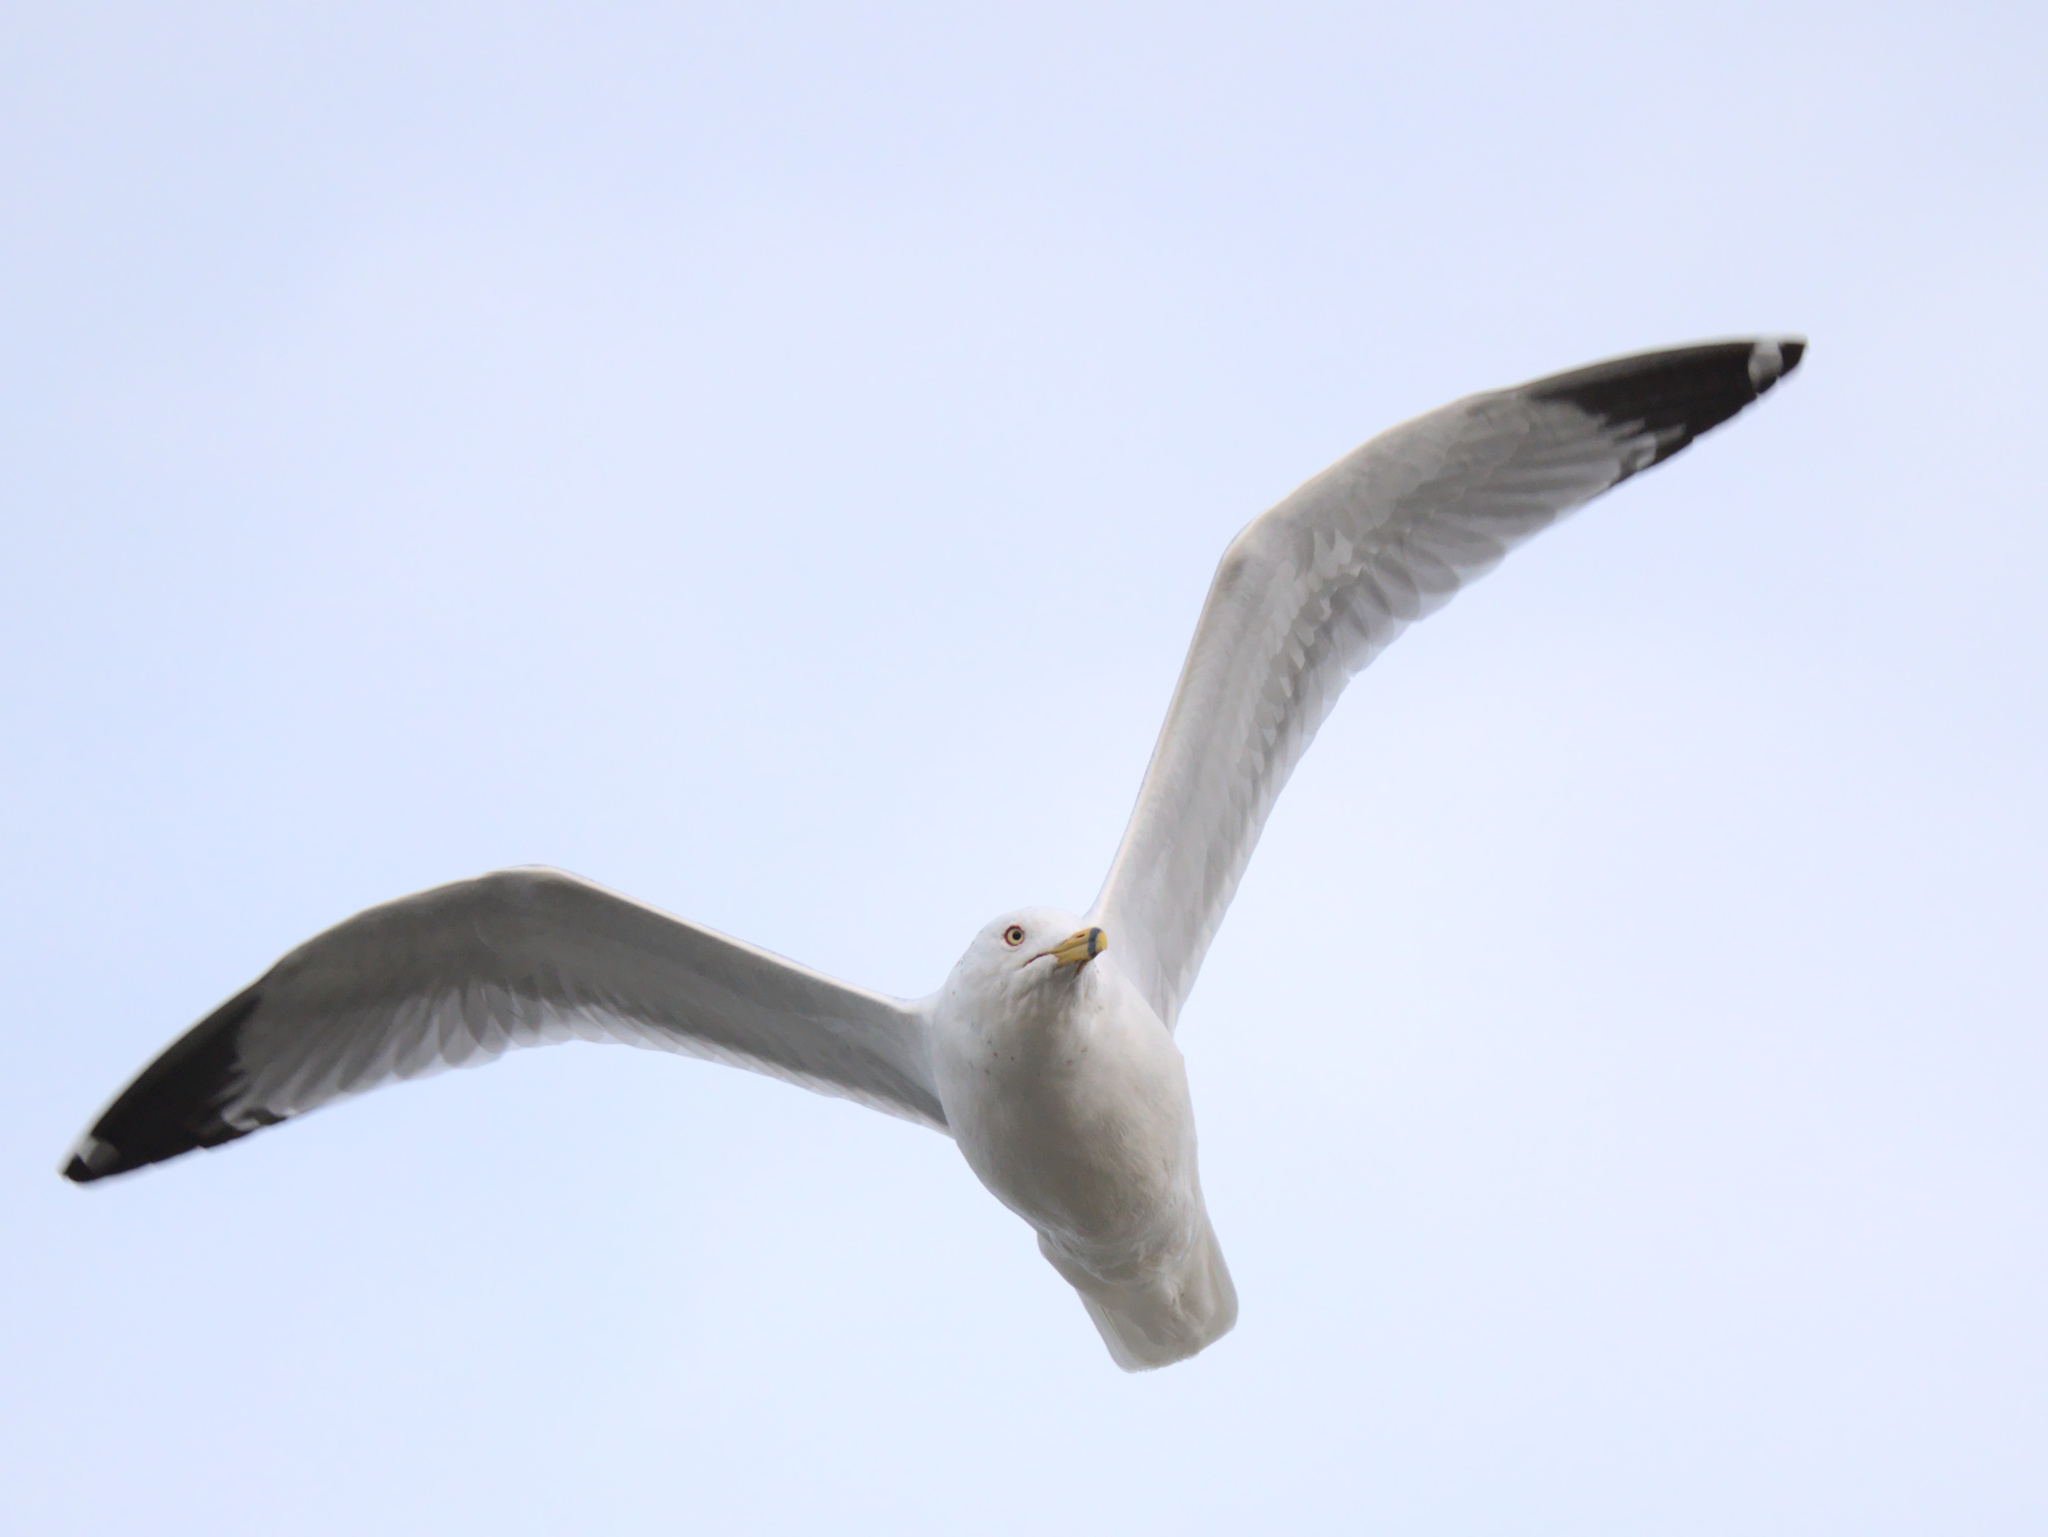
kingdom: Animalia
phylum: Chordata
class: Aves
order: Charadriiformes
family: Laridae
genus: Larus
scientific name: Larus delawarensis
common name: Ring-billed gull
